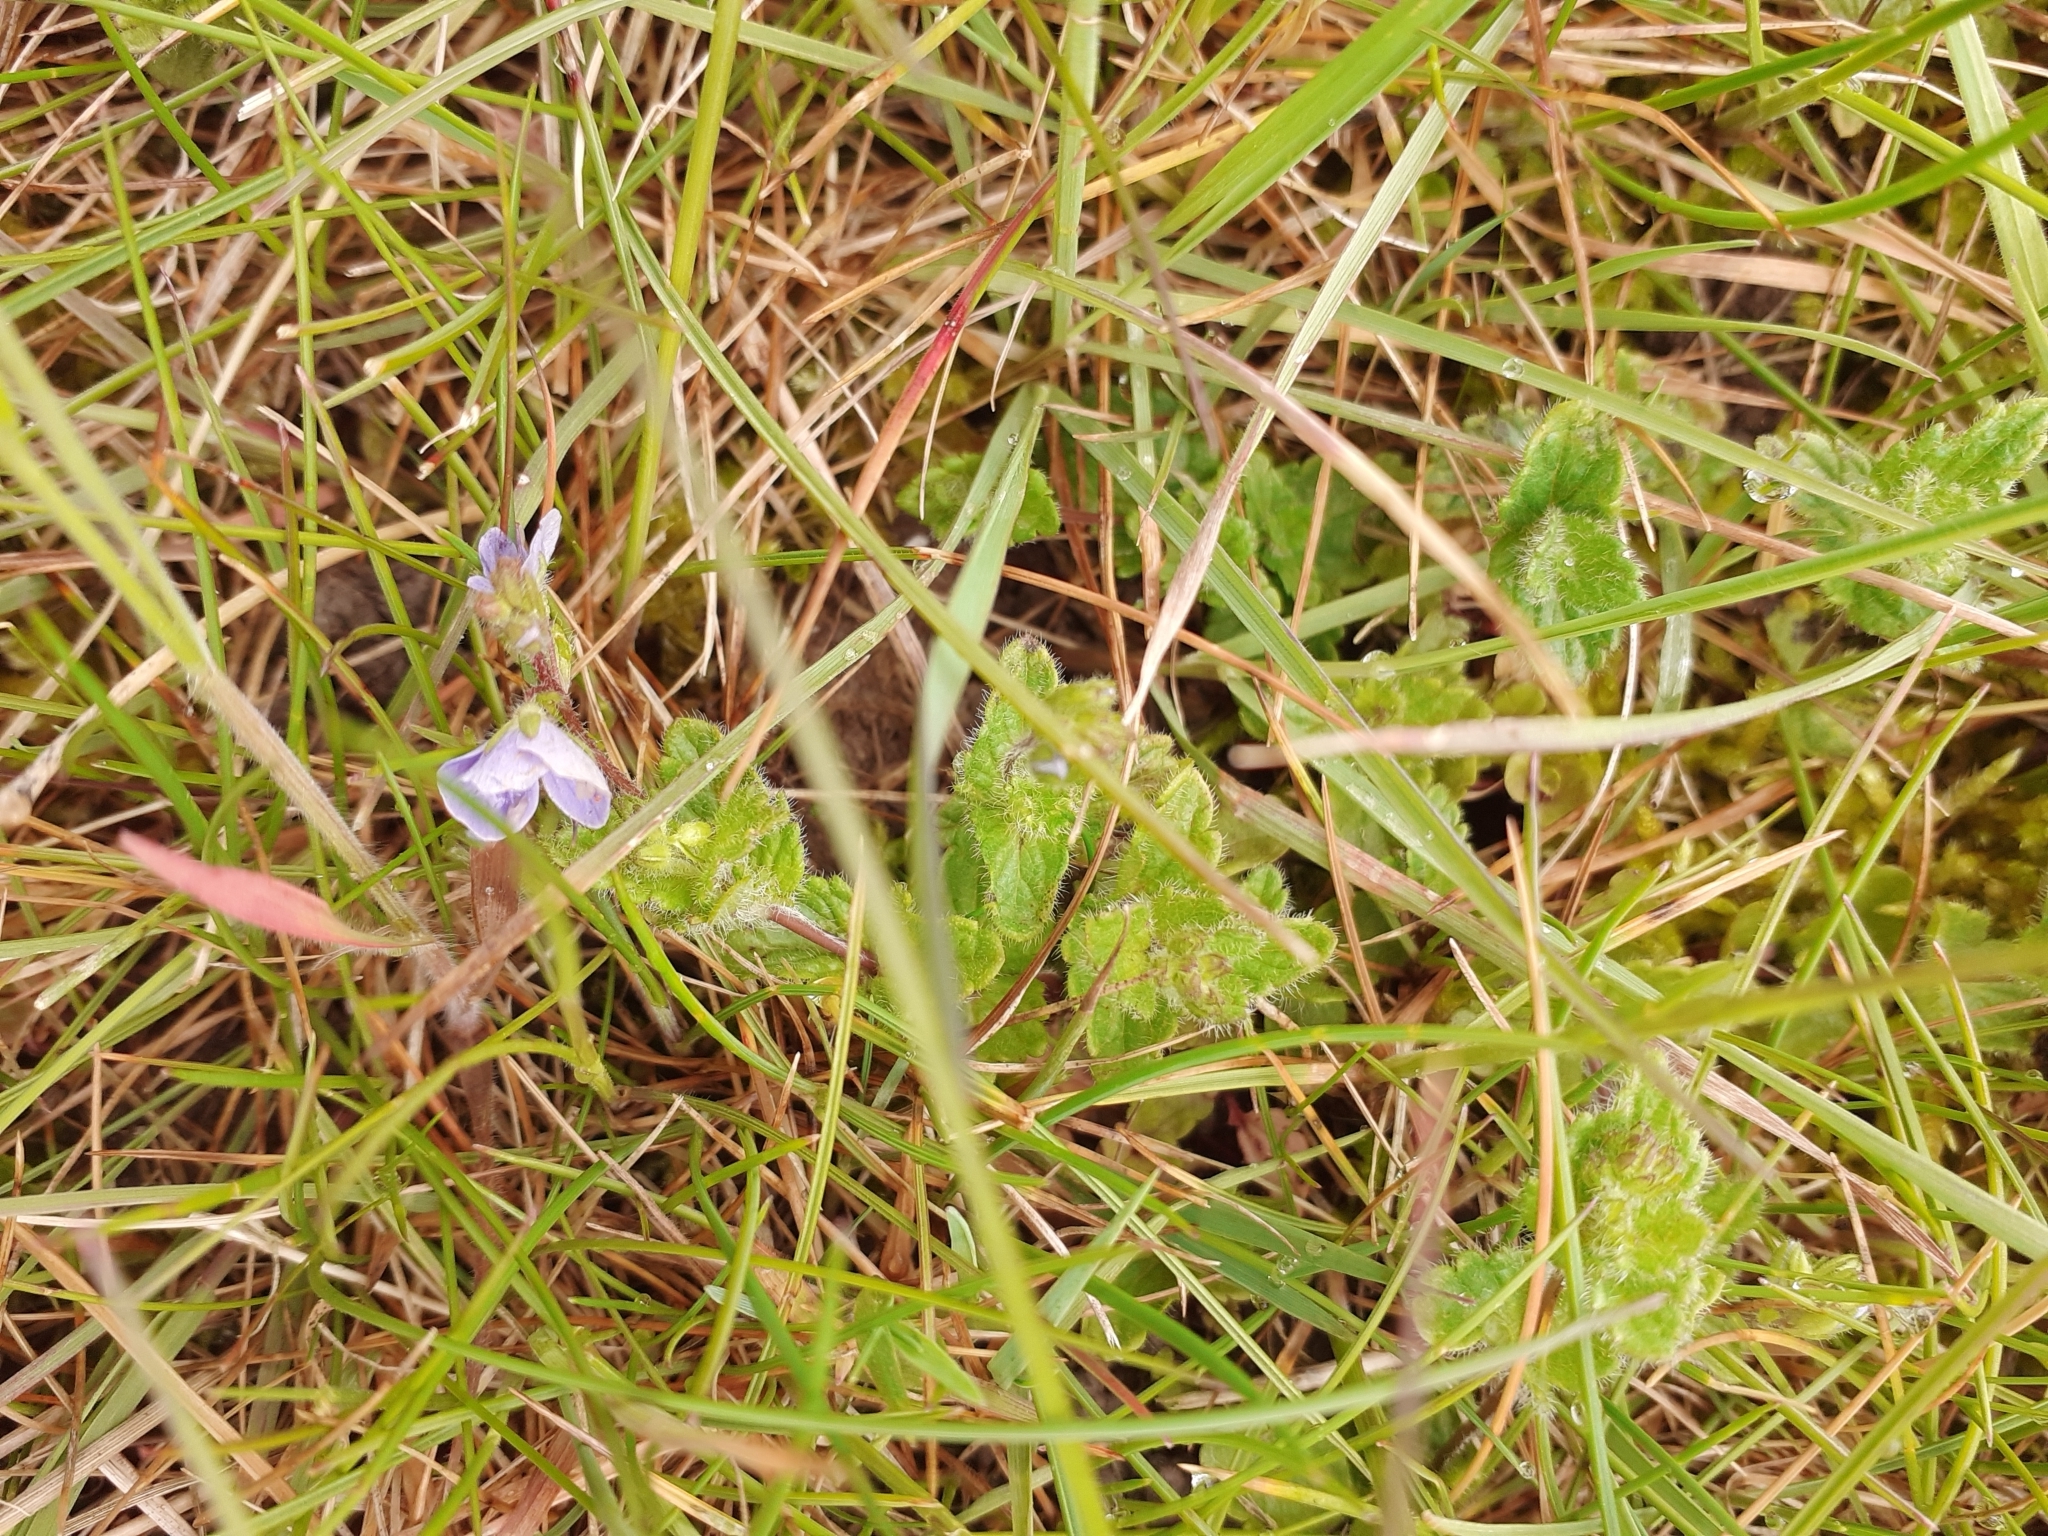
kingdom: Plantae
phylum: Tracheophyta
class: Magnoliopsida
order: Lamiales
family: Plantaginaceae
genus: Veronica
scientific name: Veronica chamaedrys
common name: Germander speedwell
